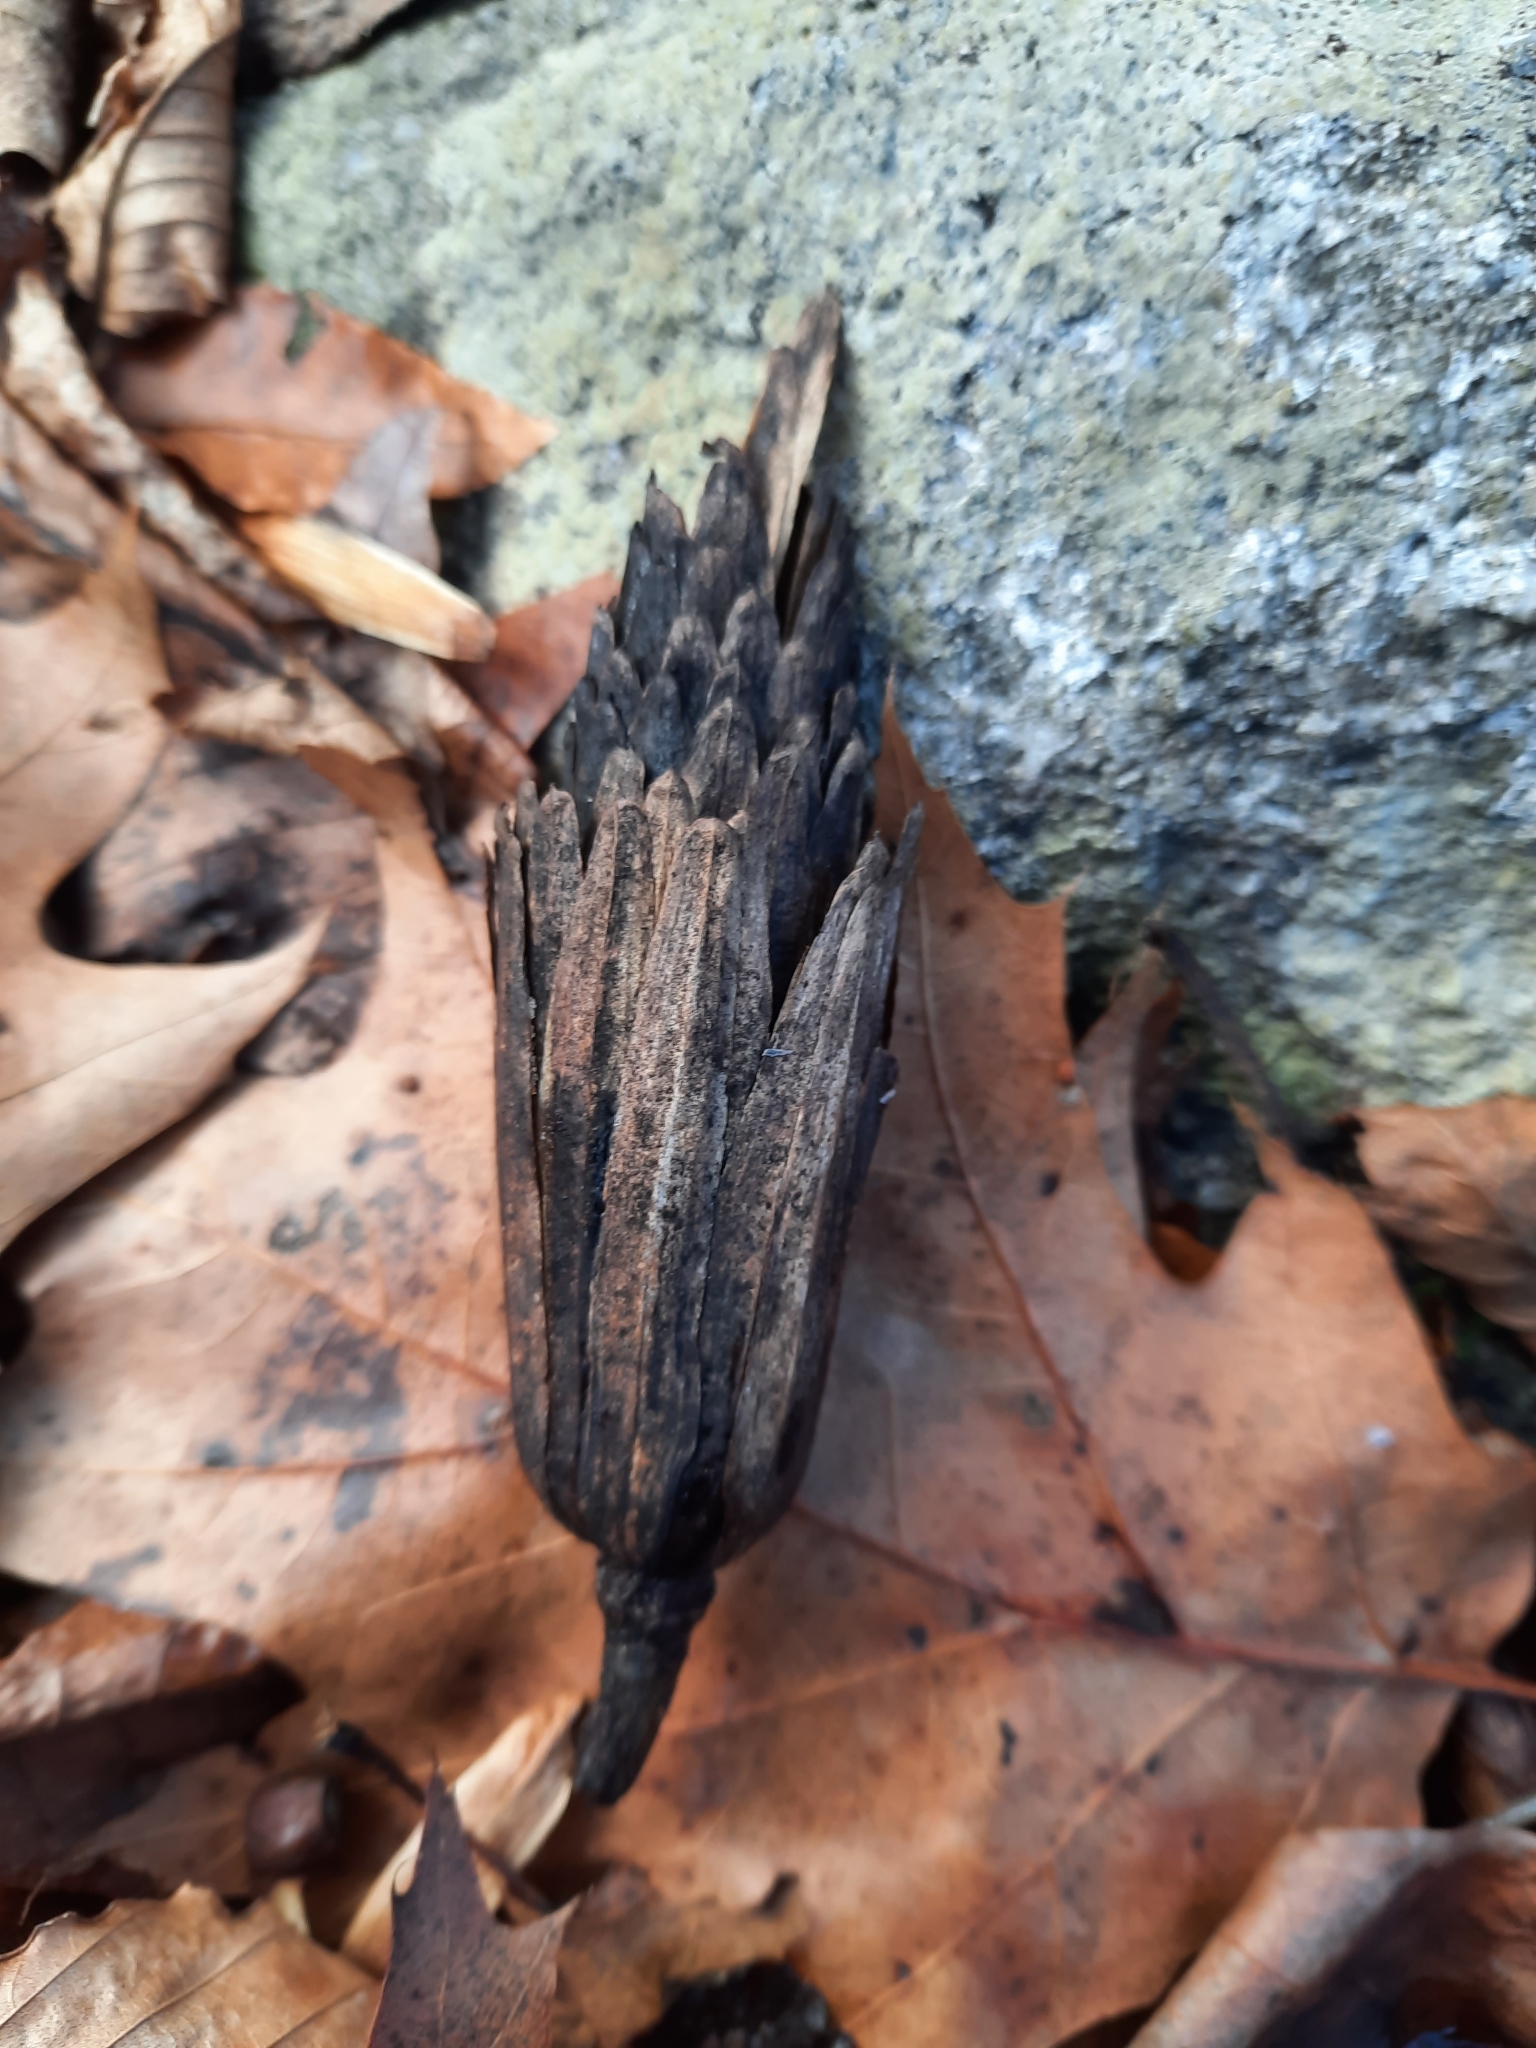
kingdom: Plantae
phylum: Tracheophyta
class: Magnoliopsida
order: Magnoliales
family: Magnoliaceae
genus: Liriodendron
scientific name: Liriodendron tulipifera
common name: Tulip tree
